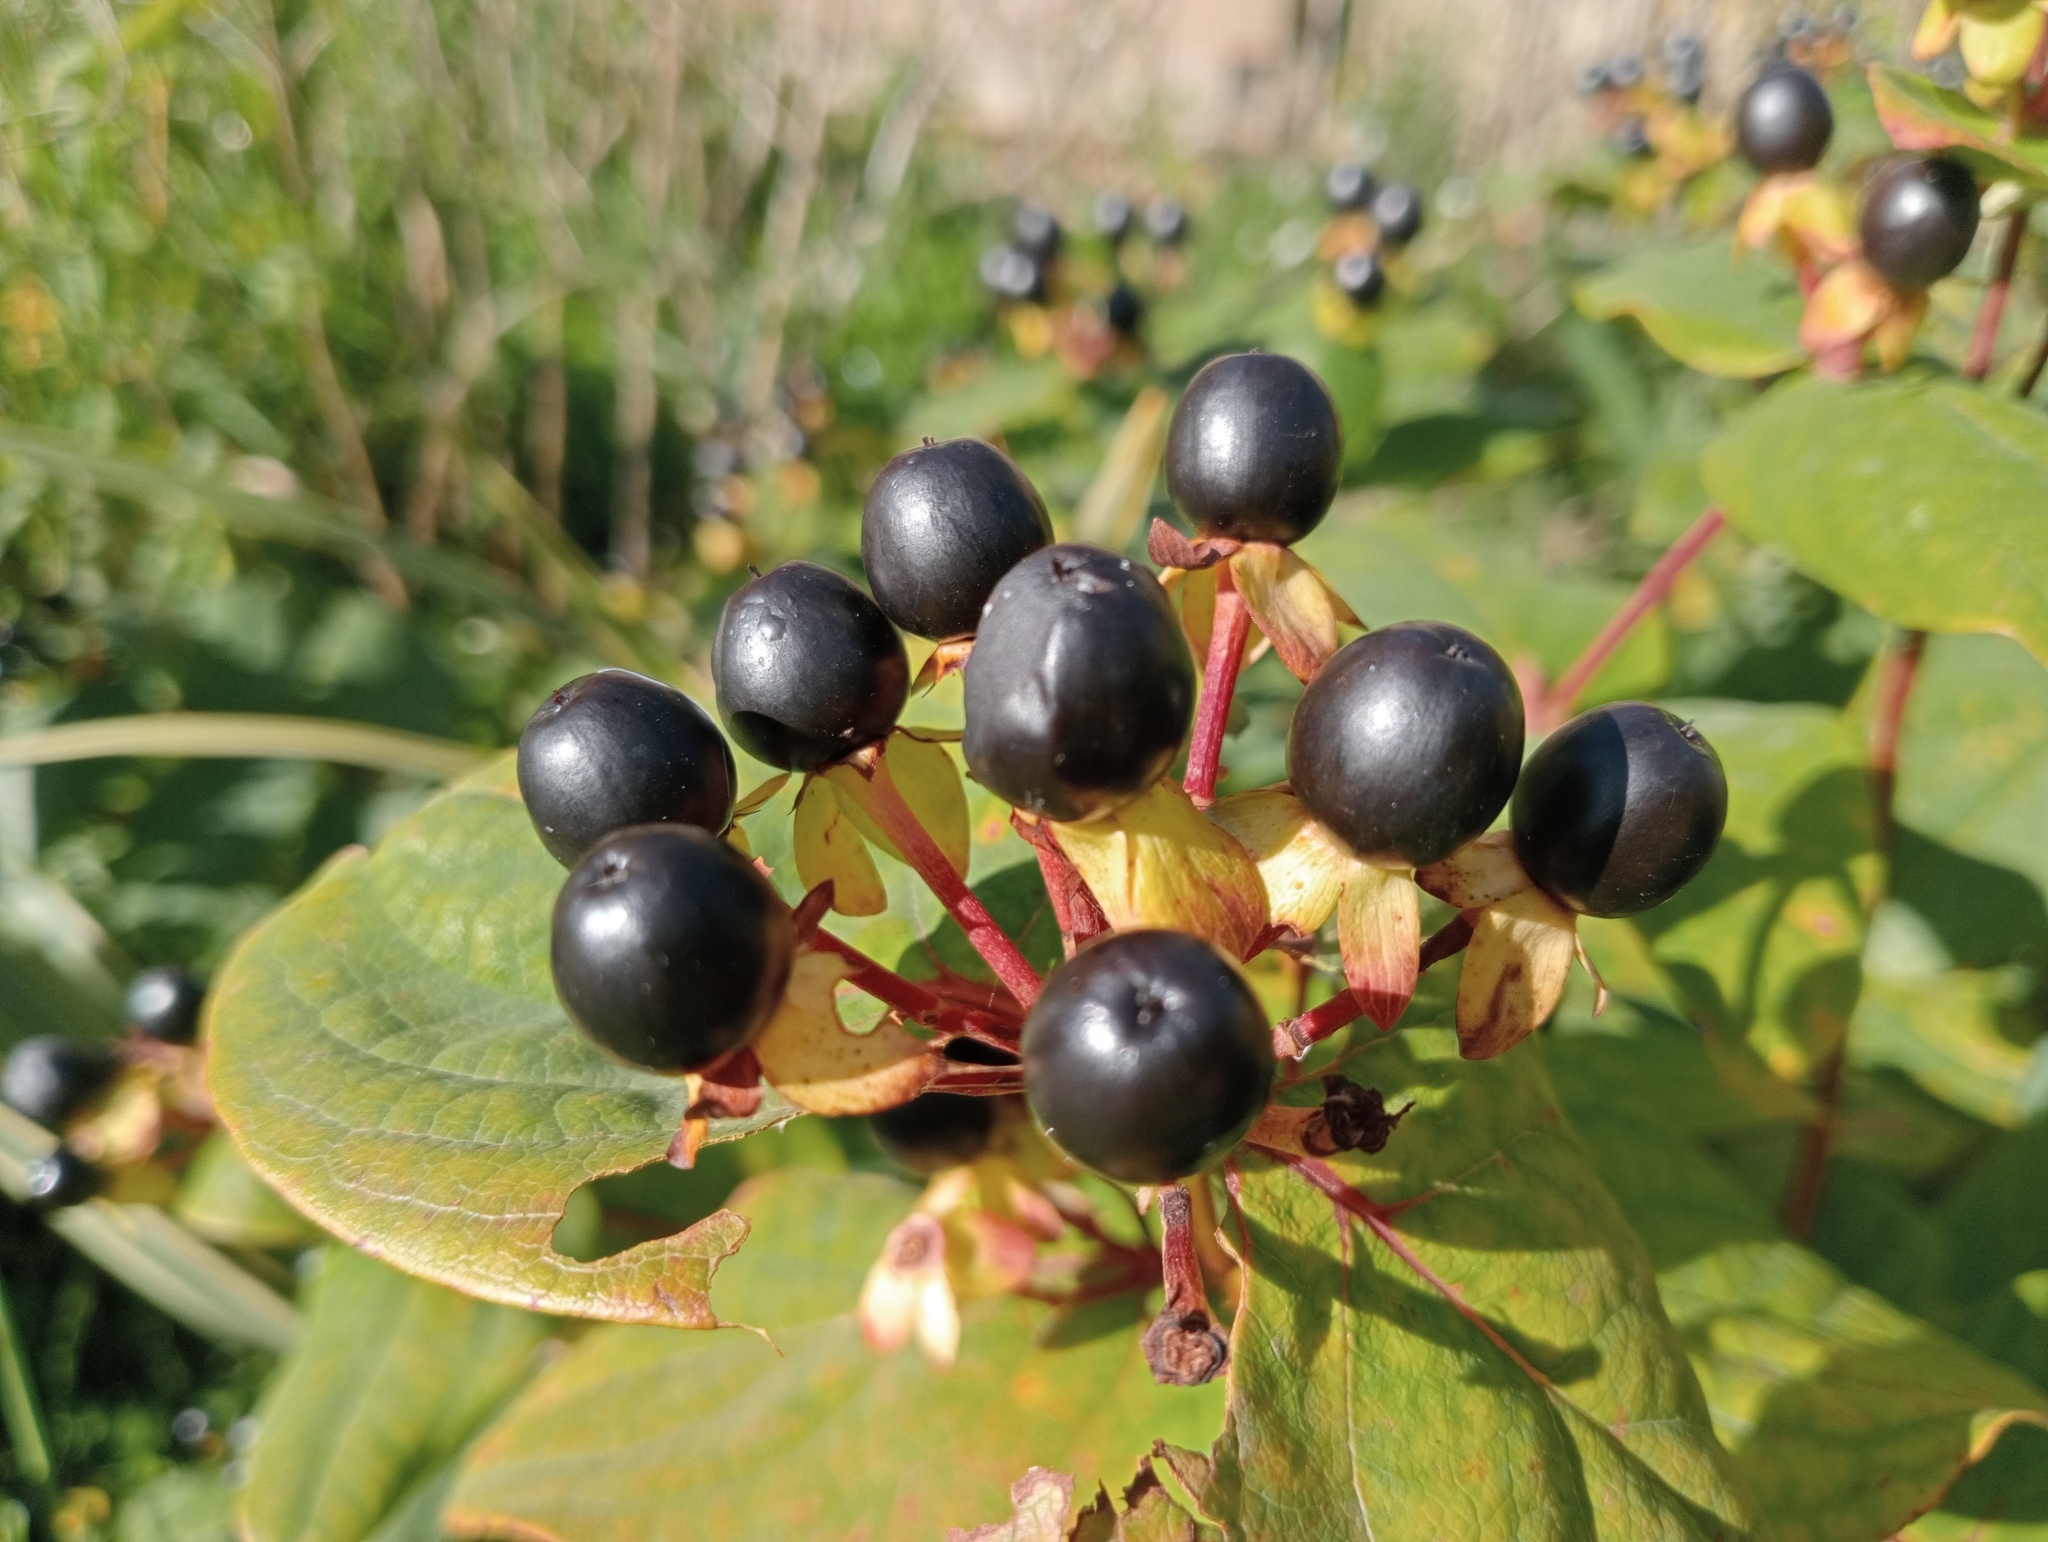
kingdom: Plantae
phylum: Tracheophyta
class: Magnoliopsida
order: Malpighiales
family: Hypericaceae
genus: Hypericum
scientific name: Hypericum androsaemum
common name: Sweet-amber
